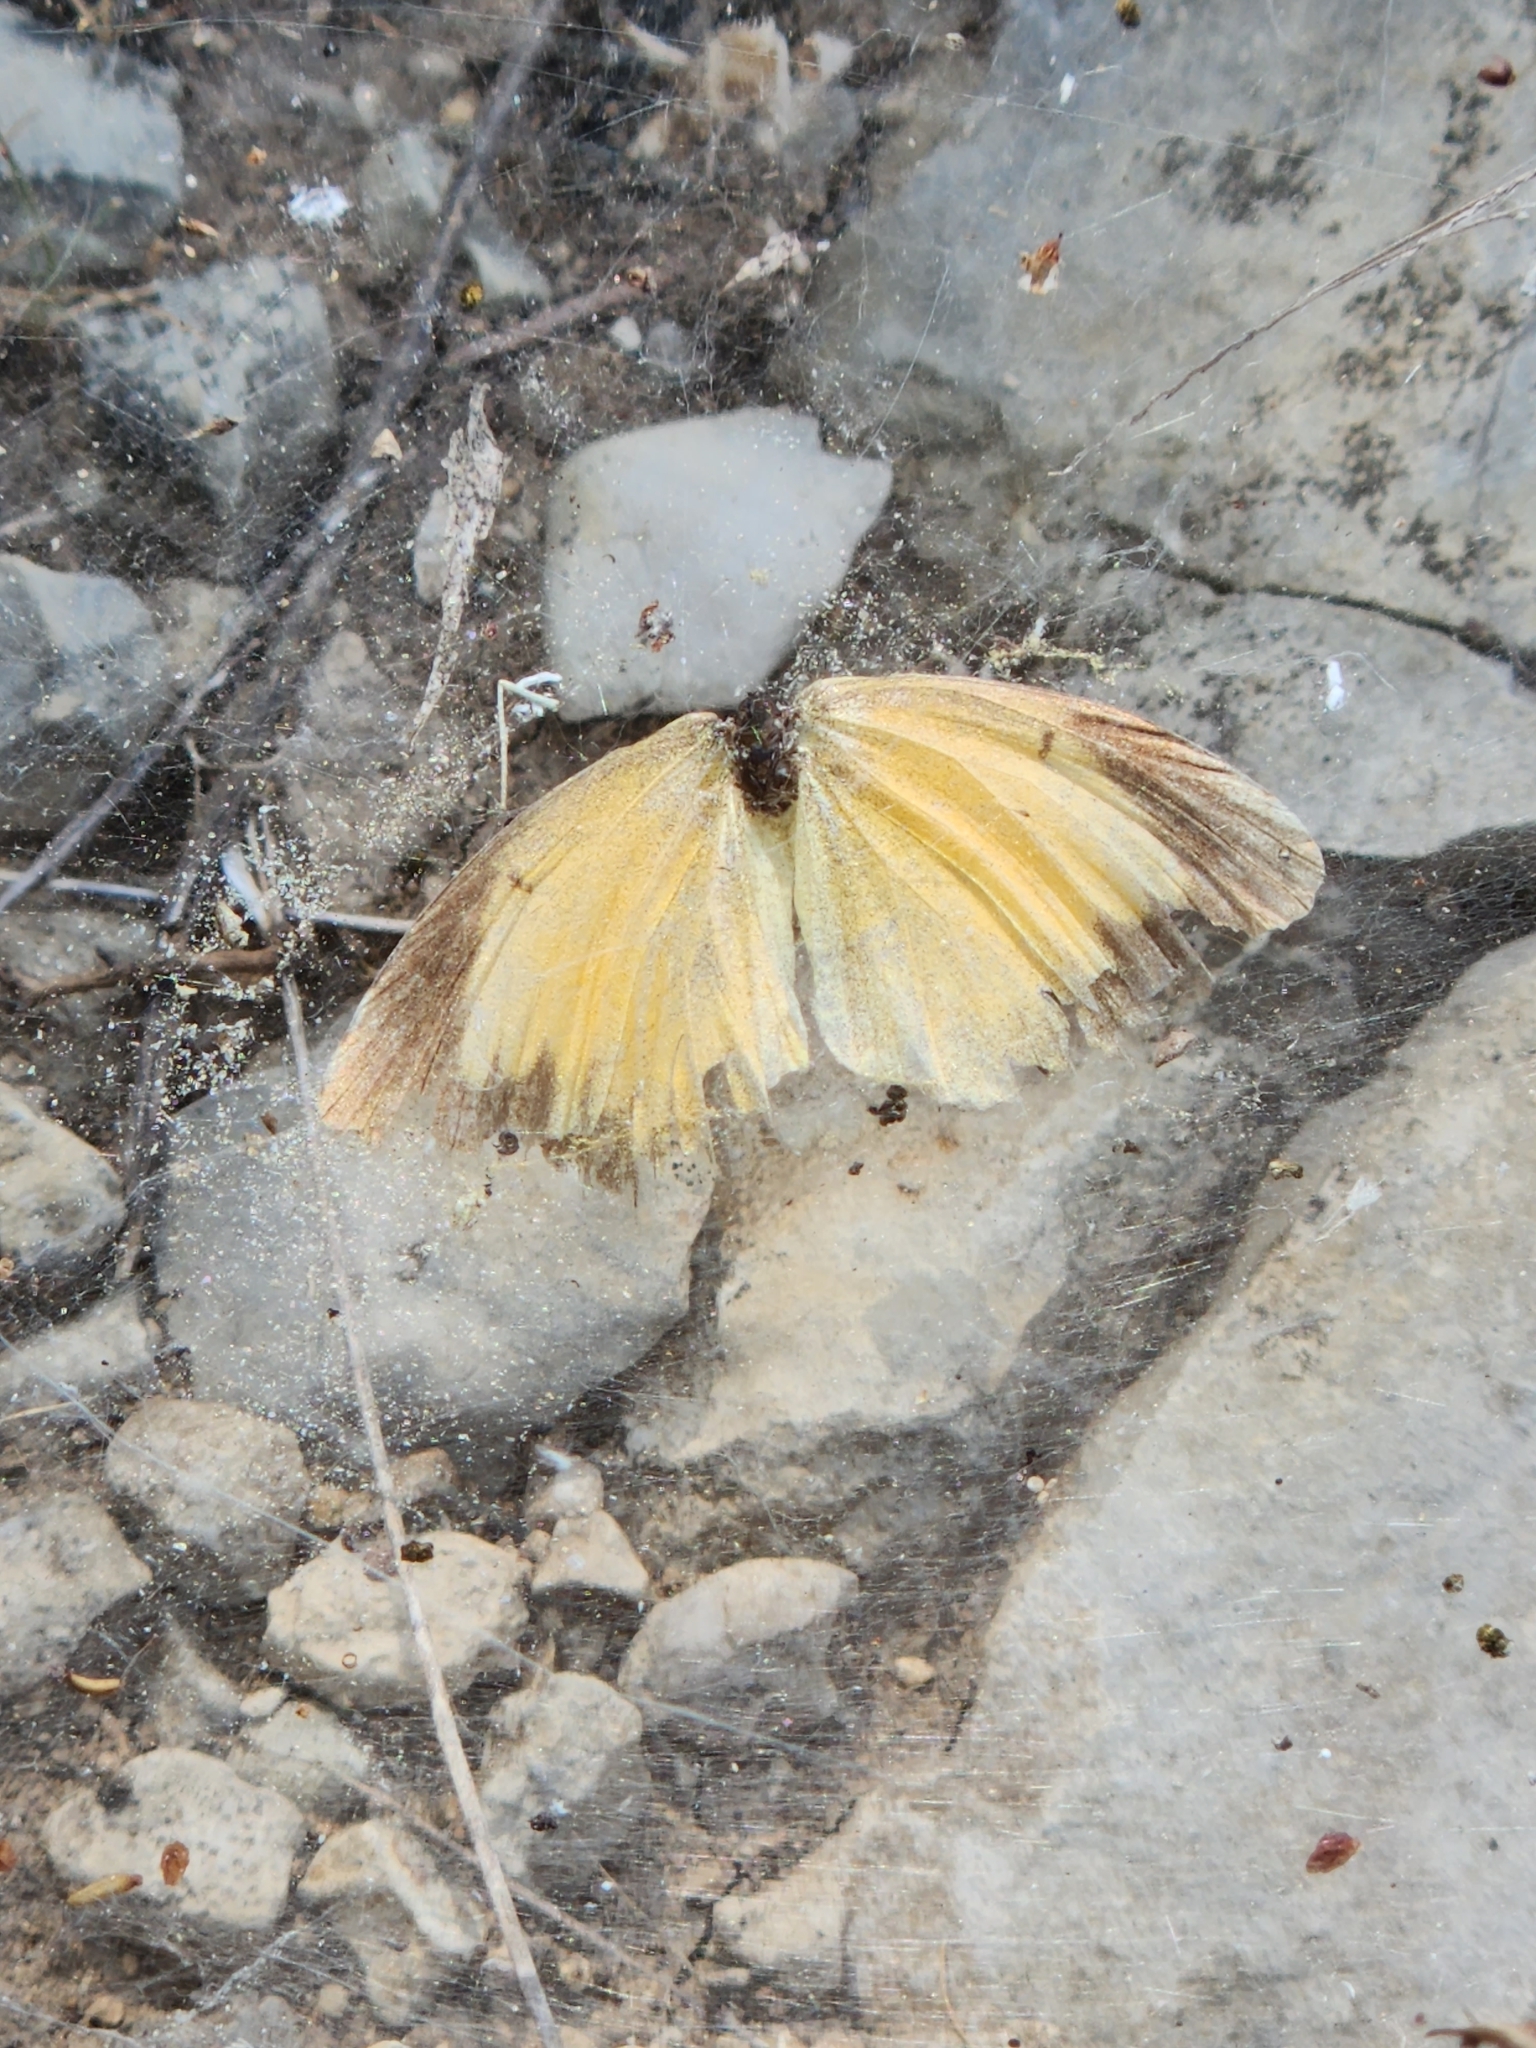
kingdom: Animalia
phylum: Arthropoda
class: Insecta
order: Lepidoptera
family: Pieridae
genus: Abaeis
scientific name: Abaeis nicippe
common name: Sleepy orange
